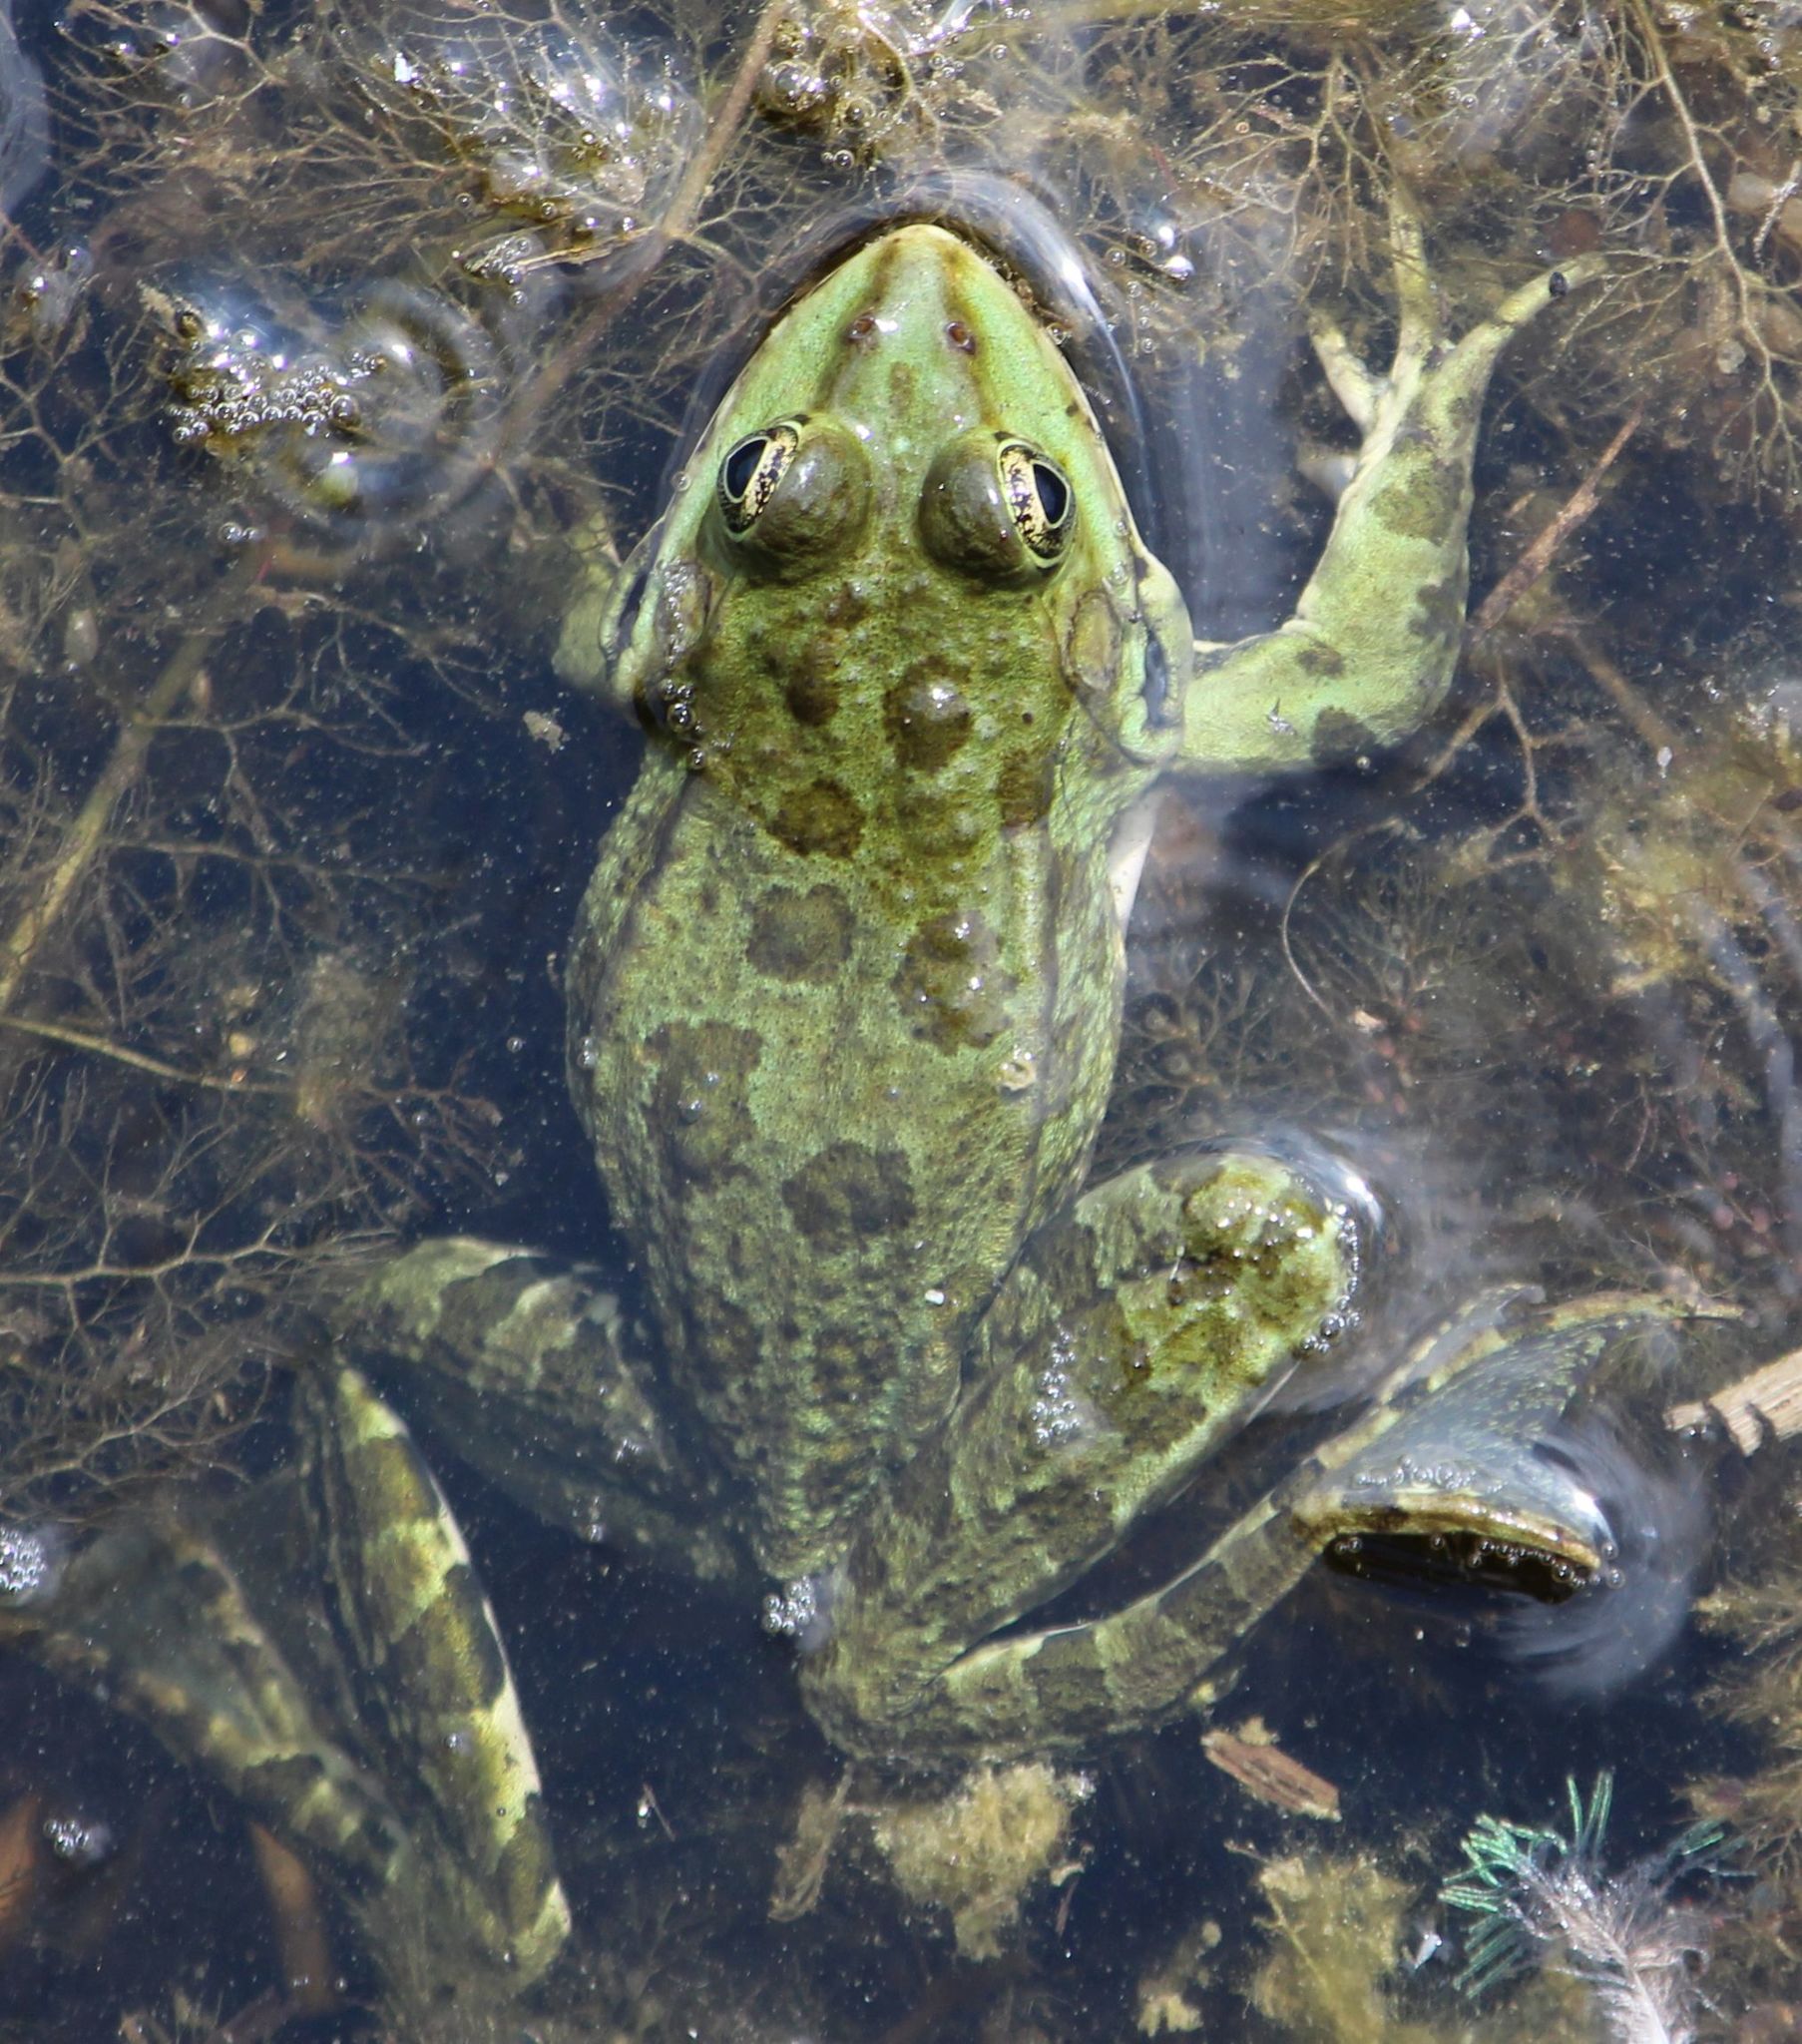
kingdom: Animalia
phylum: Chordata
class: Amphibia
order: Anura
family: Ranidae
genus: Pelophylax
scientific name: Pelophylax
